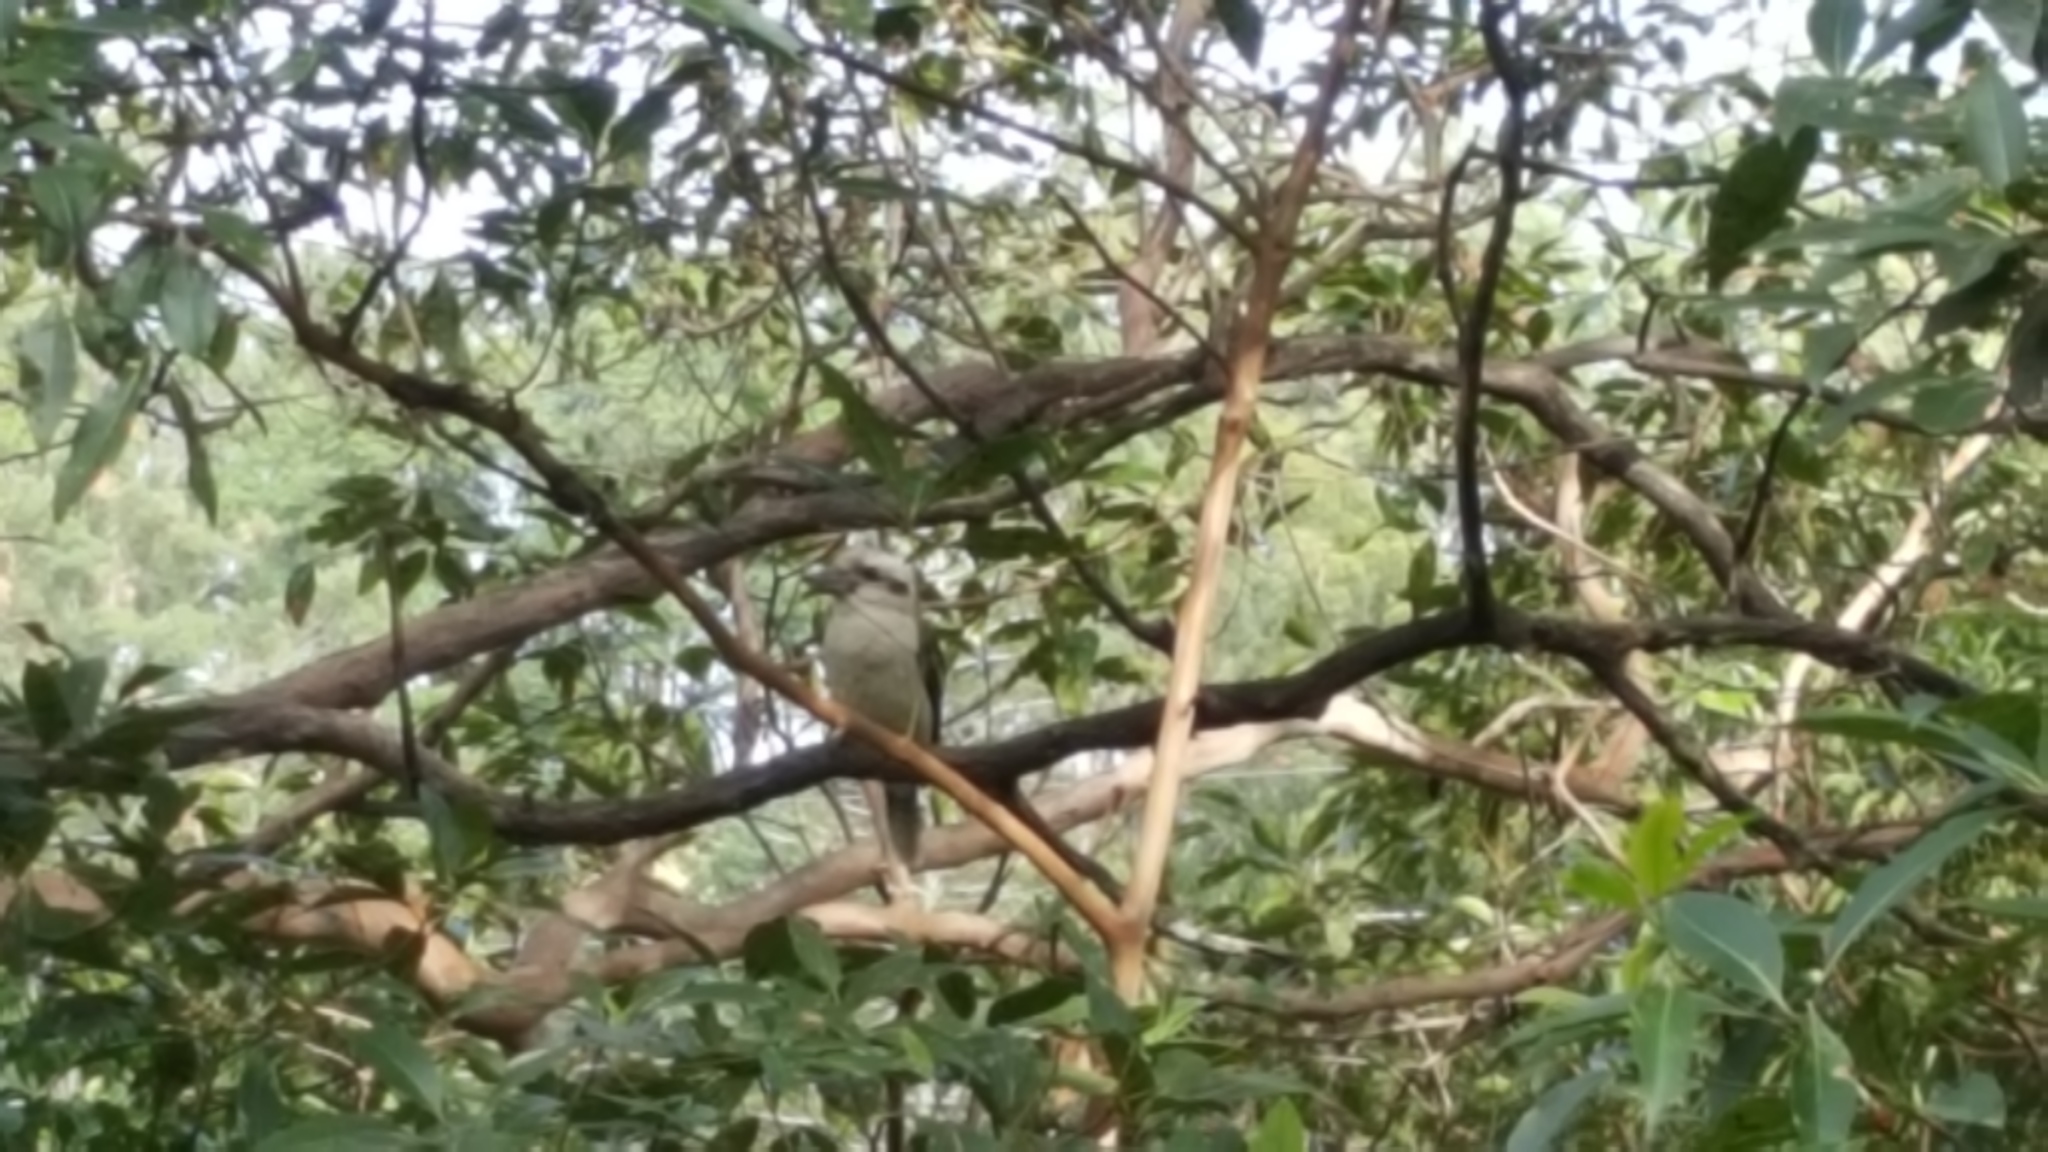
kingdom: Animalia
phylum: Chordata
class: Aves
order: Coraciiformes
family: Alcedinidae
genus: Dacelo
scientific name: Dacelo novaeguineae
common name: Laughing kookaburra
